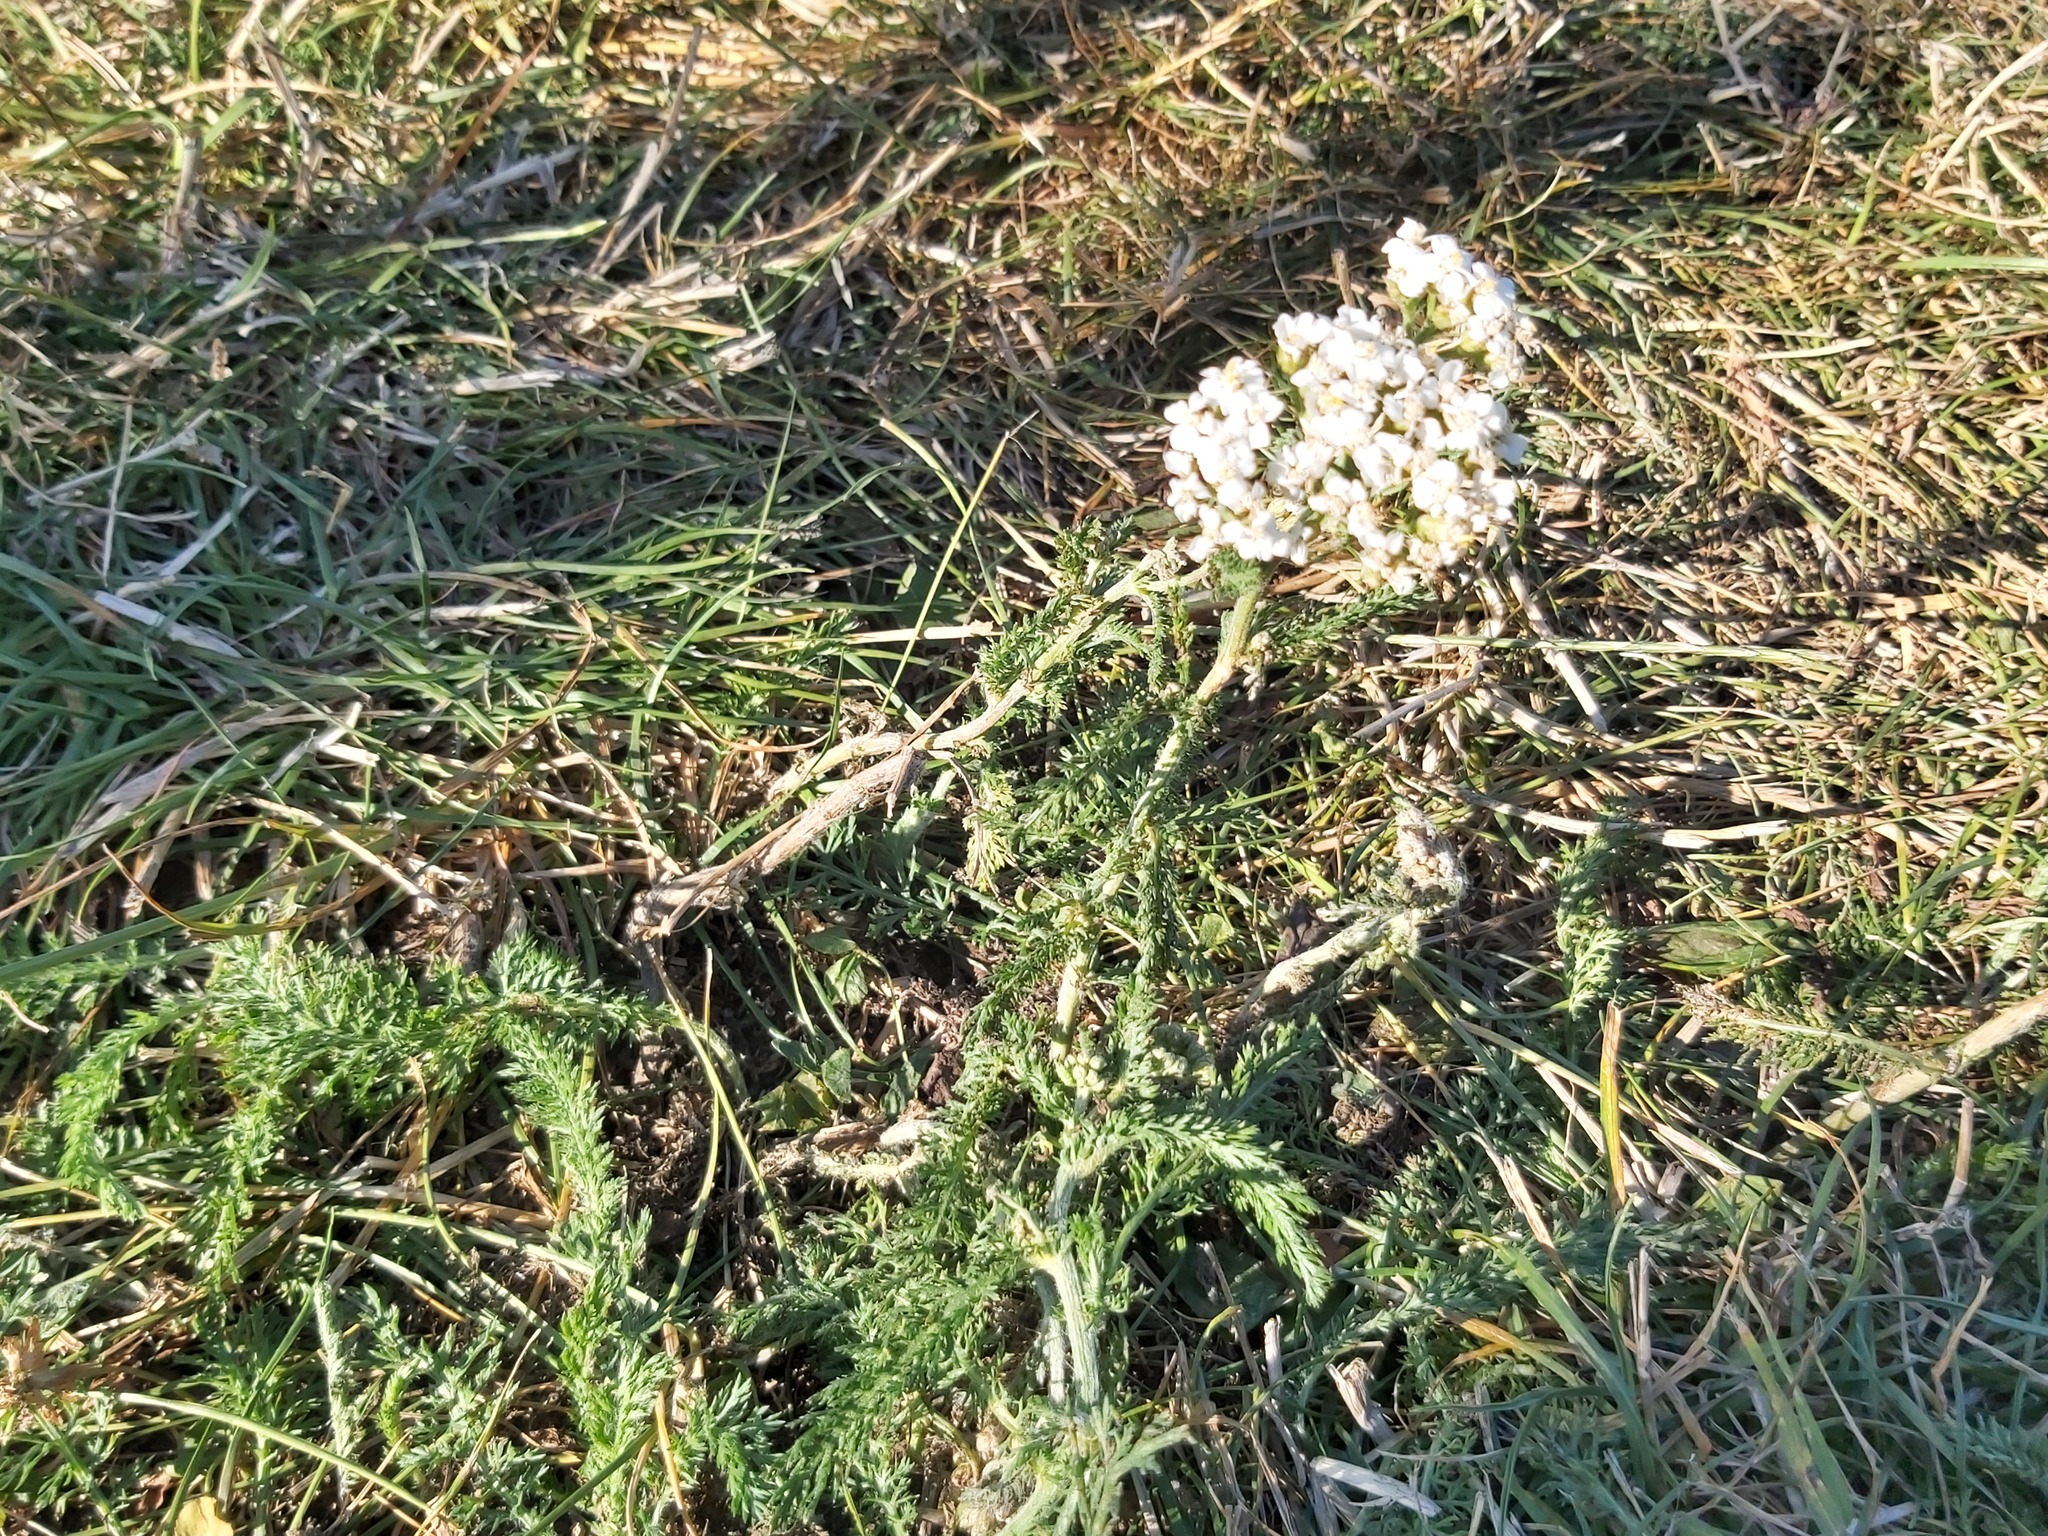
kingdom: Plantae
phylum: Tracheophyta
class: Magnoliopsida
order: Asterales
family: Asteraceae
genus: Achillea
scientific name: Achillea millefolium
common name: Yarrow
